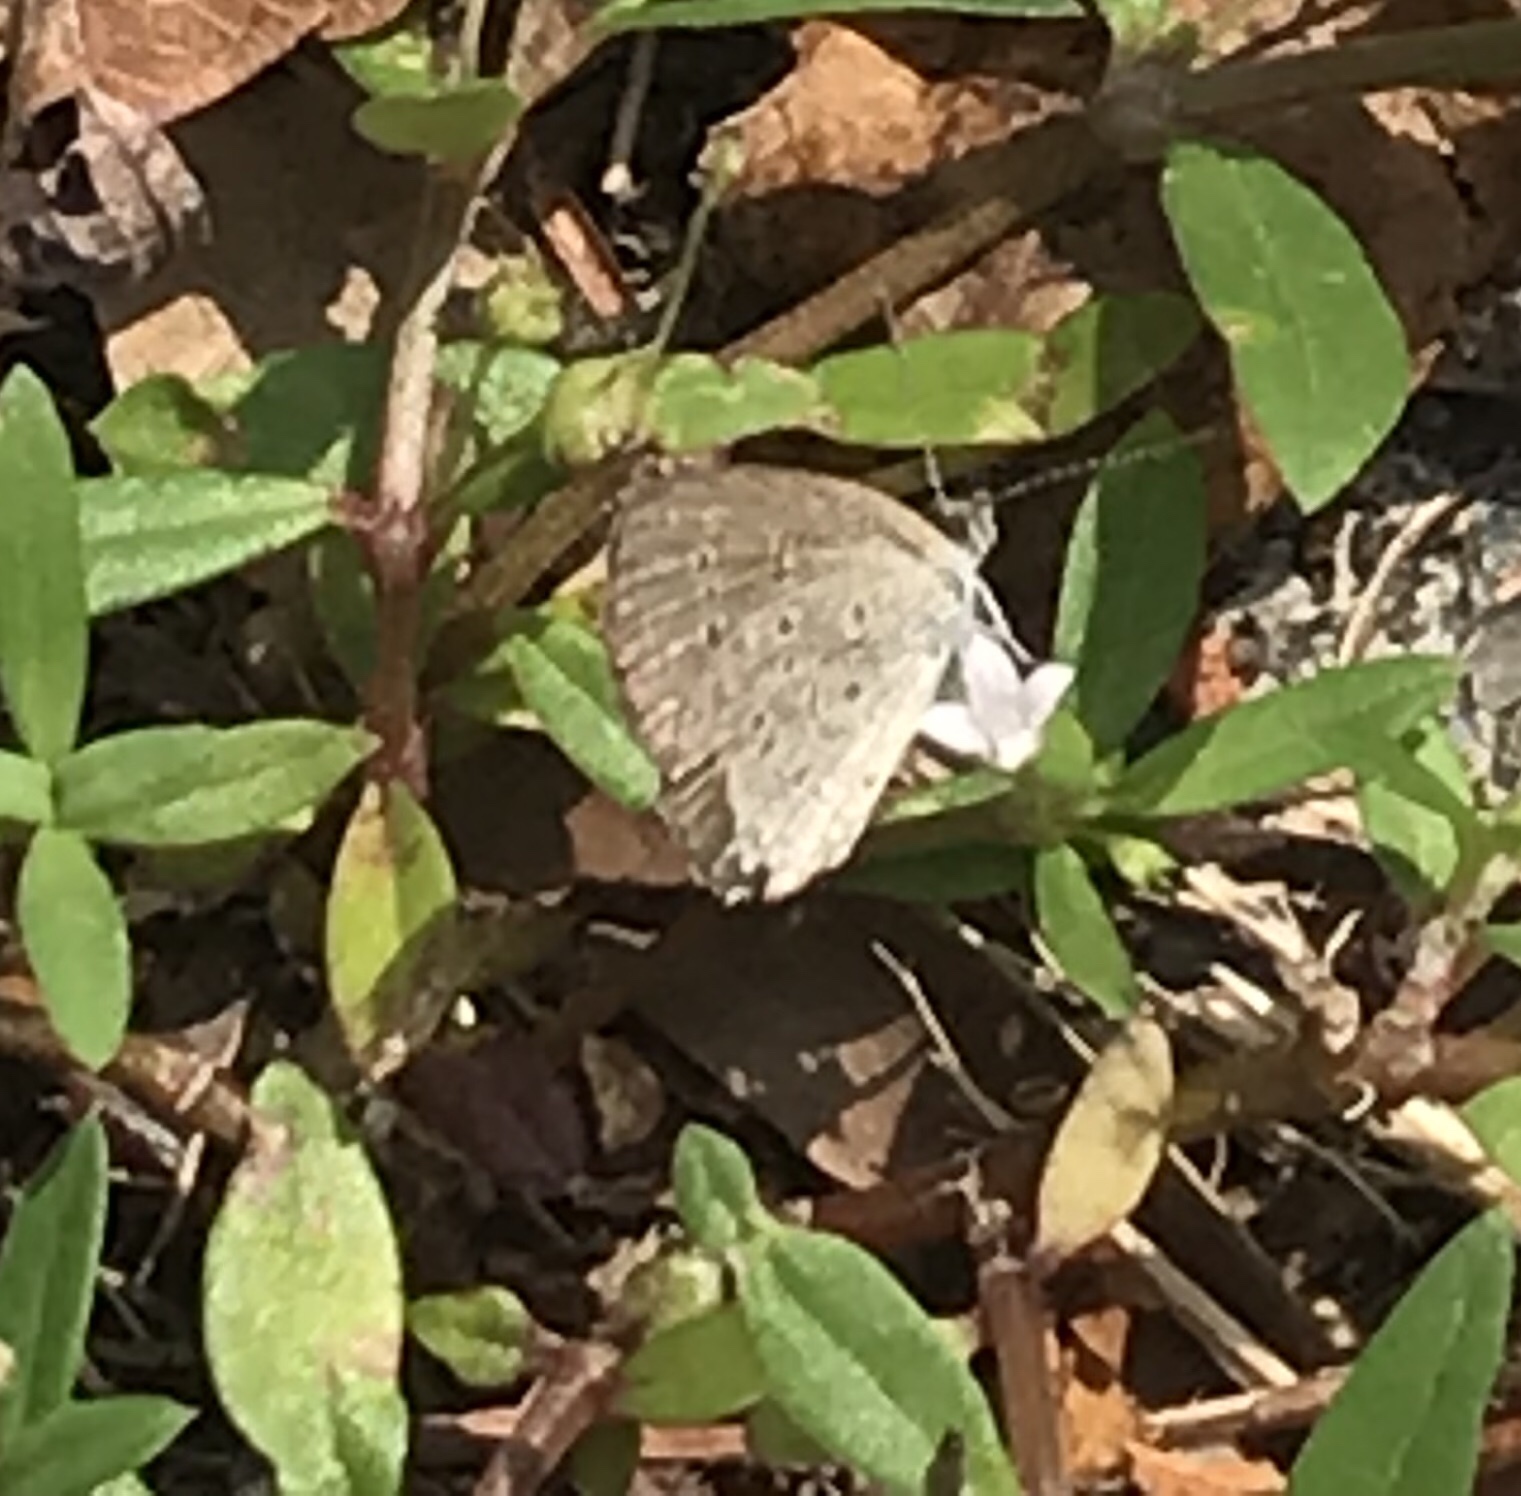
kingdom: Animalia
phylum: Arthropoda
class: Insecta
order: Lepidoptera
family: Lycaenidae
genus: Zizina
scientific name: Zizina otis
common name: Lesser grass blue
